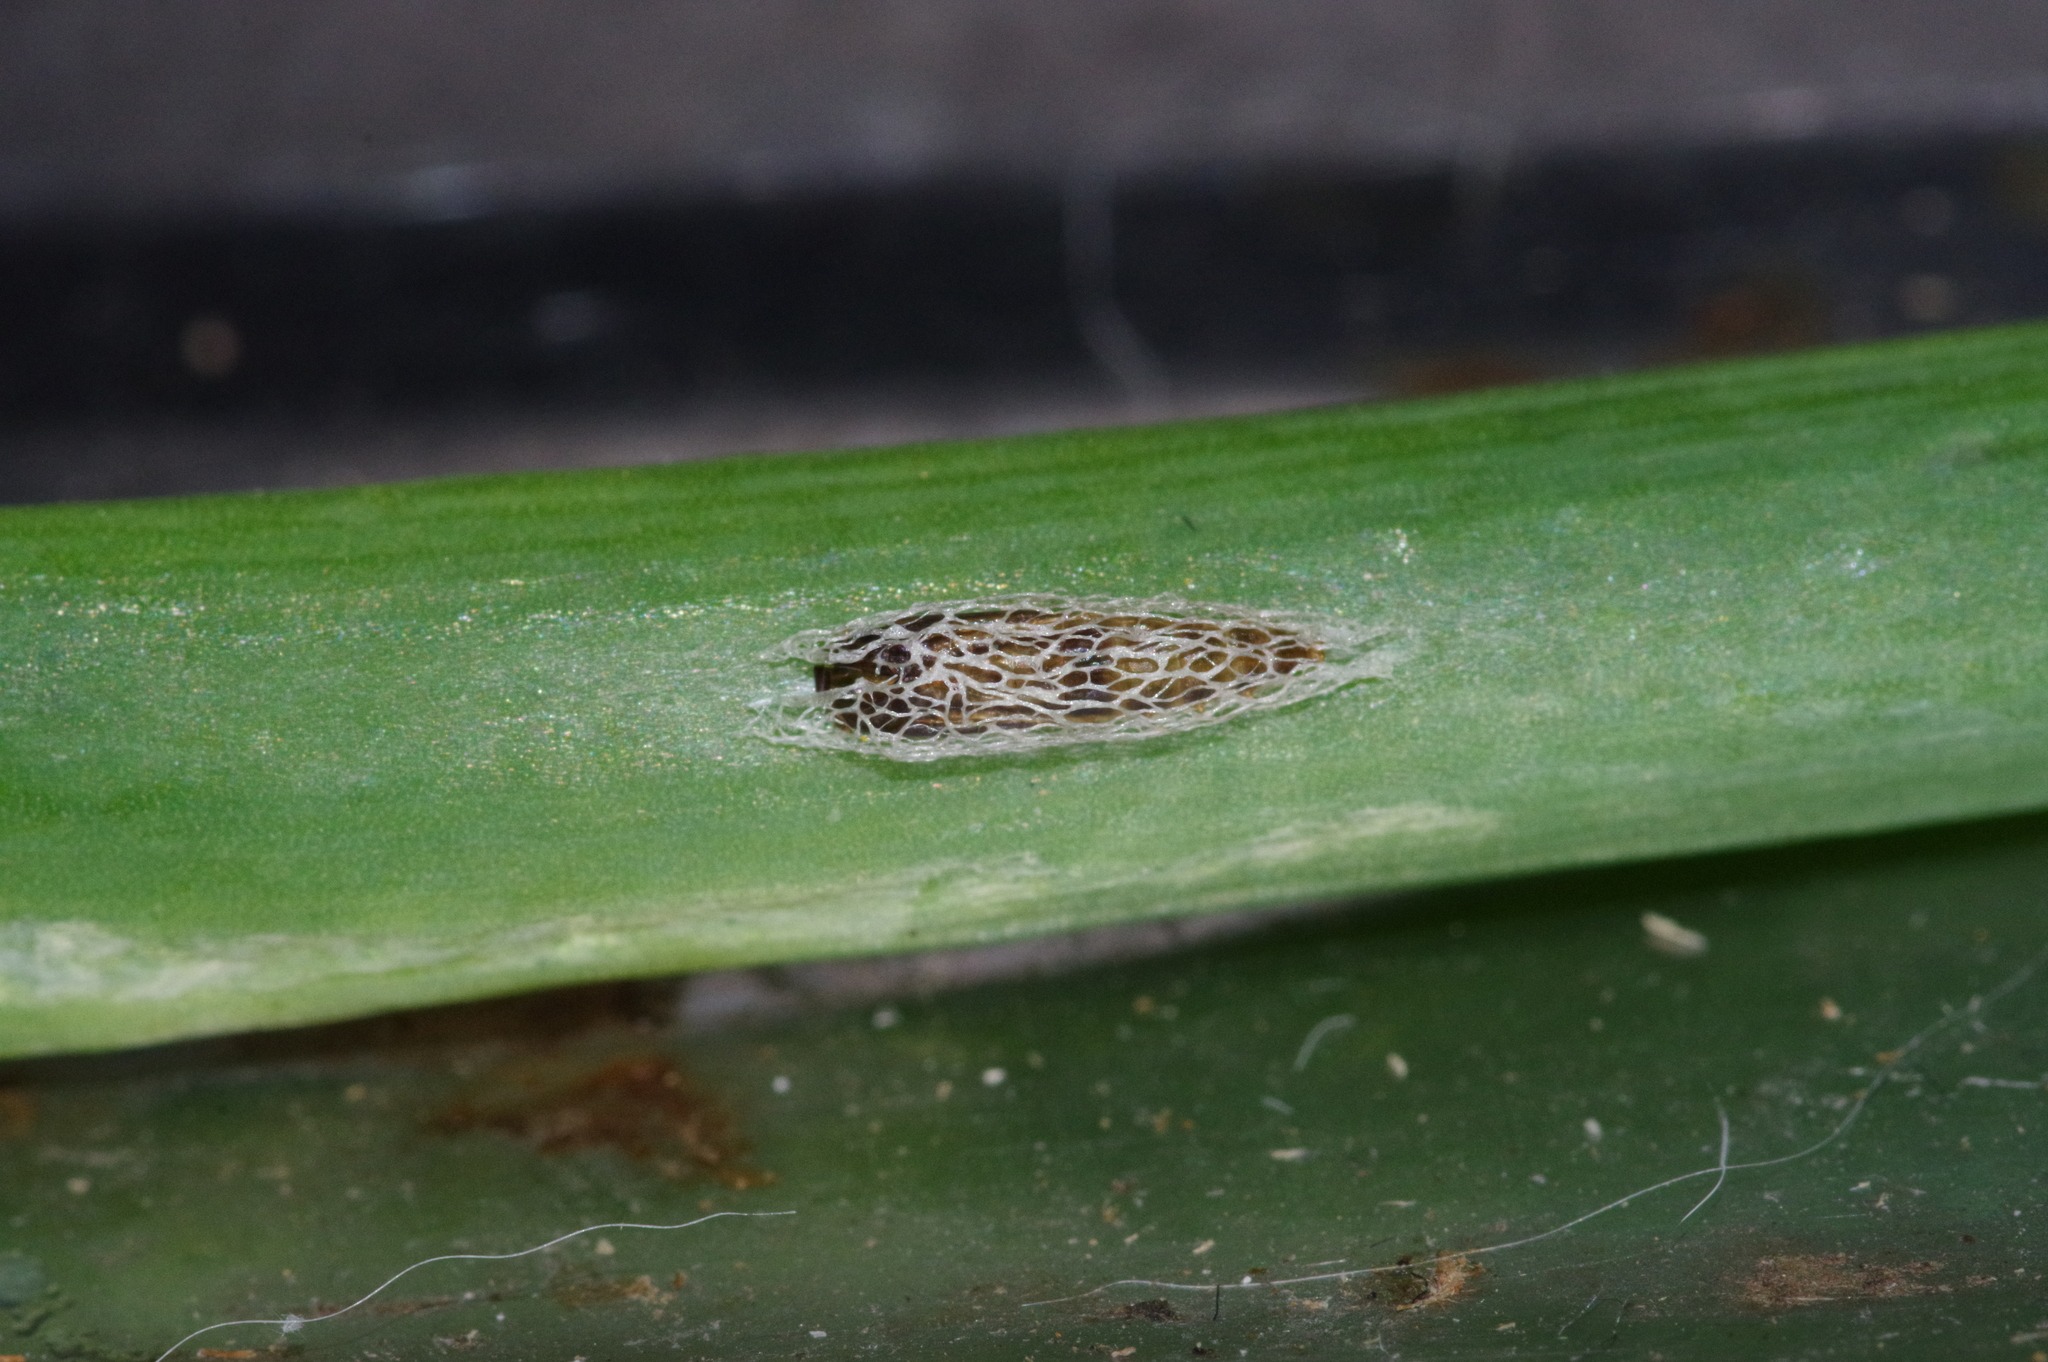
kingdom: Animalia
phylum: Arthropoda
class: Insecta
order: Lepidoptera
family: Glyphipterigidae
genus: Acrolepia
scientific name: Acrolepia Acrolepiopsis sapporensis
